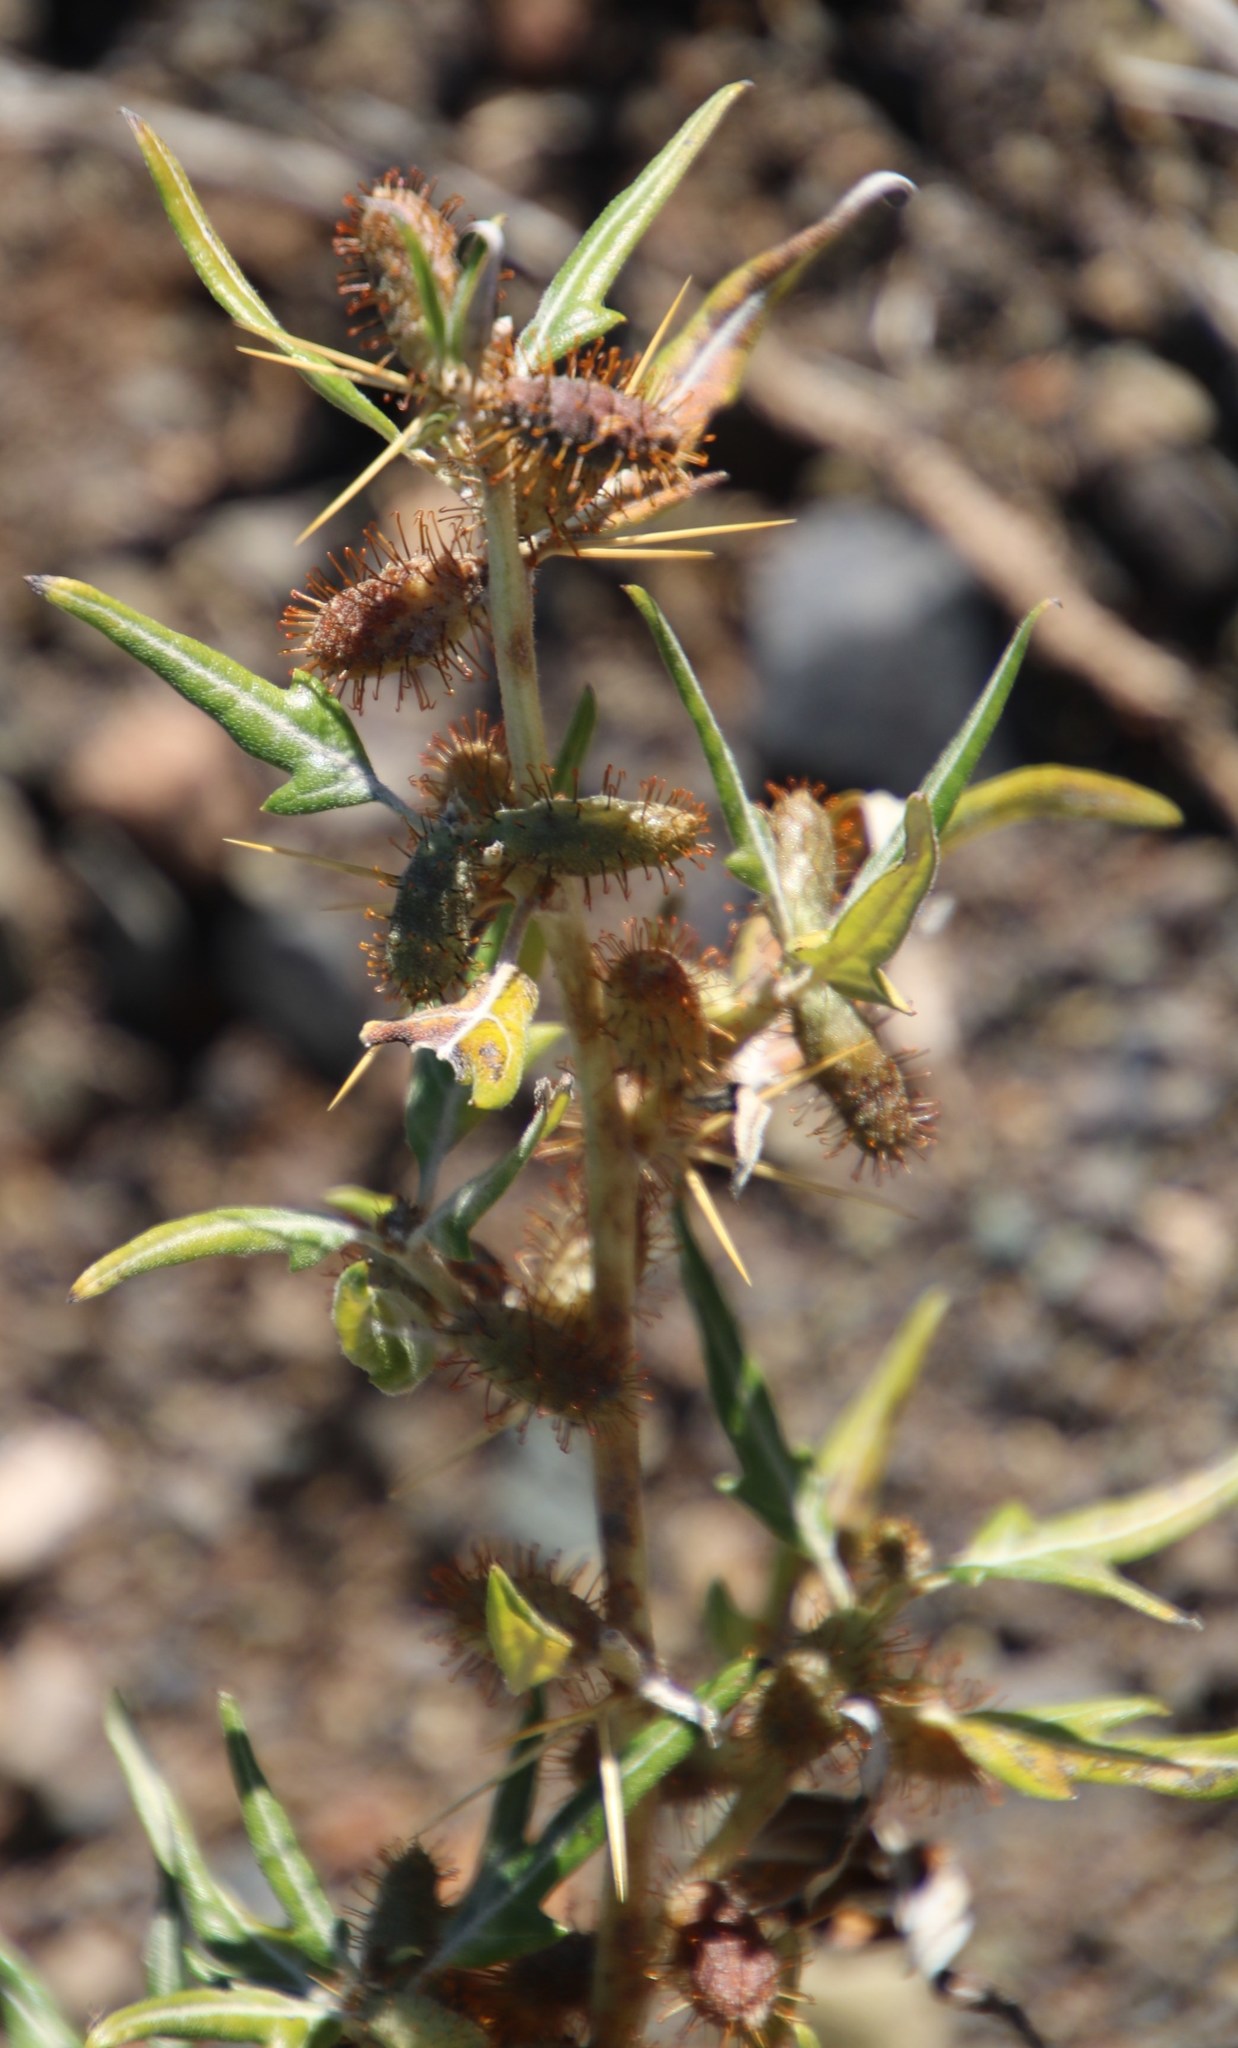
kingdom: Plantae
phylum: Tracheophyta
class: Magnoliopsida
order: Asterales
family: Asteraceae
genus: Xanthium
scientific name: Xanthium spinosum
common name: Spiny cocklebur
